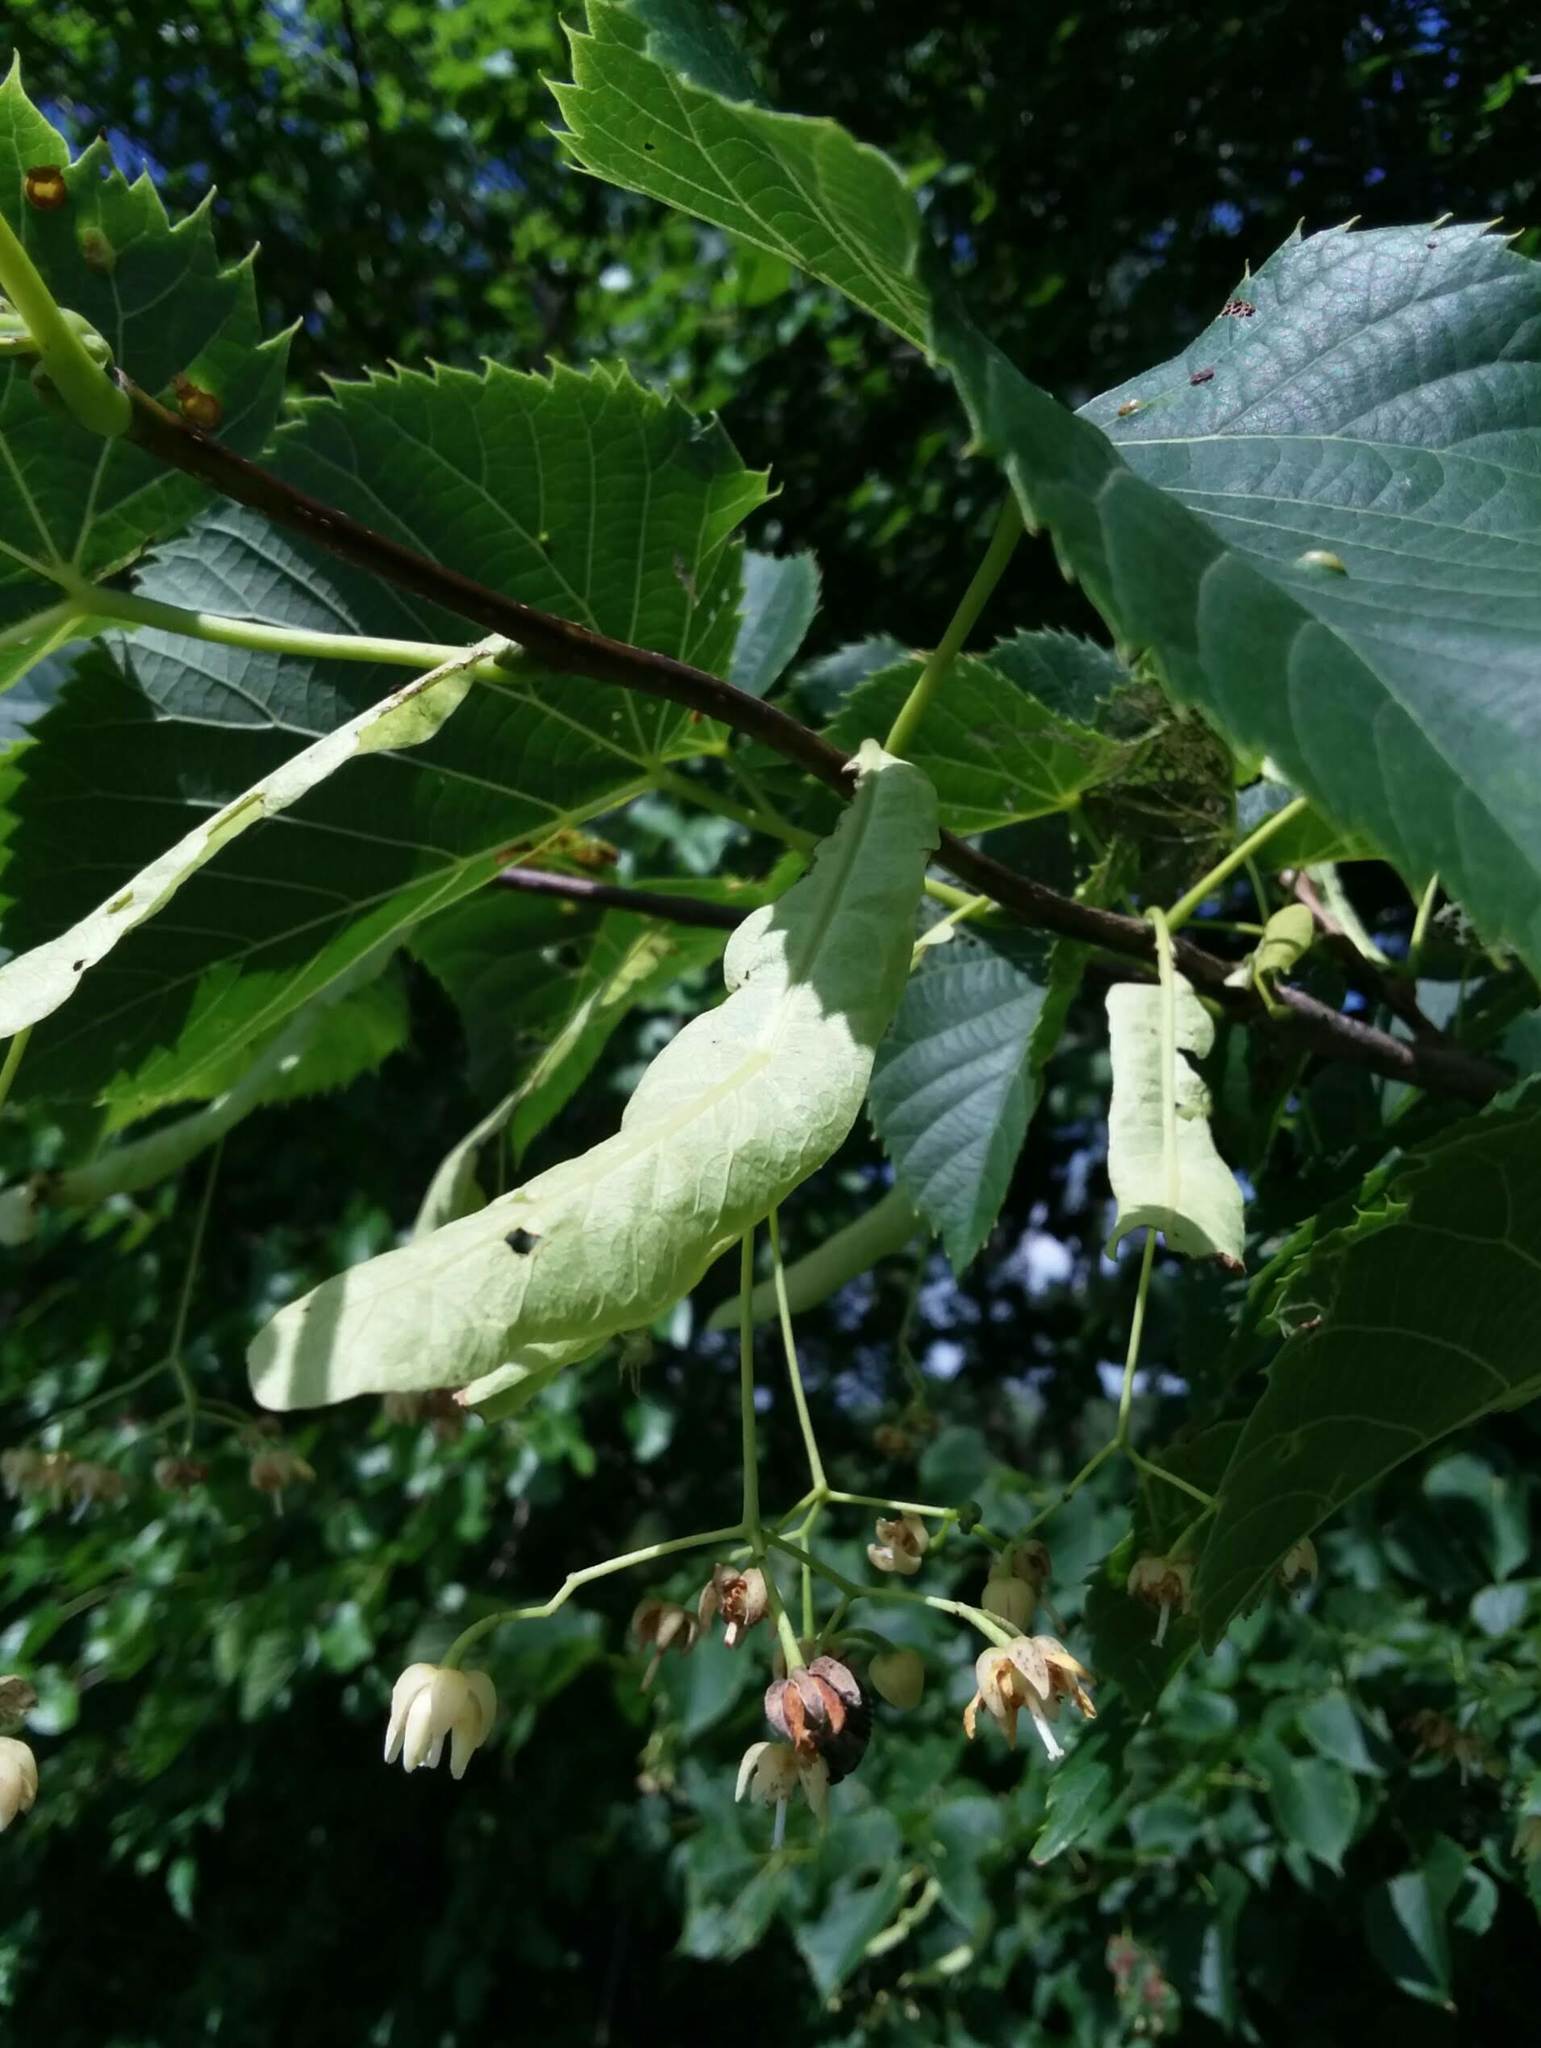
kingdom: Plantae
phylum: Tracheophyta
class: Magnoliopsida
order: Malvales
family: Malvaceae
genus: Tilia
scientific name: Tilia americana
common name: Basswood
